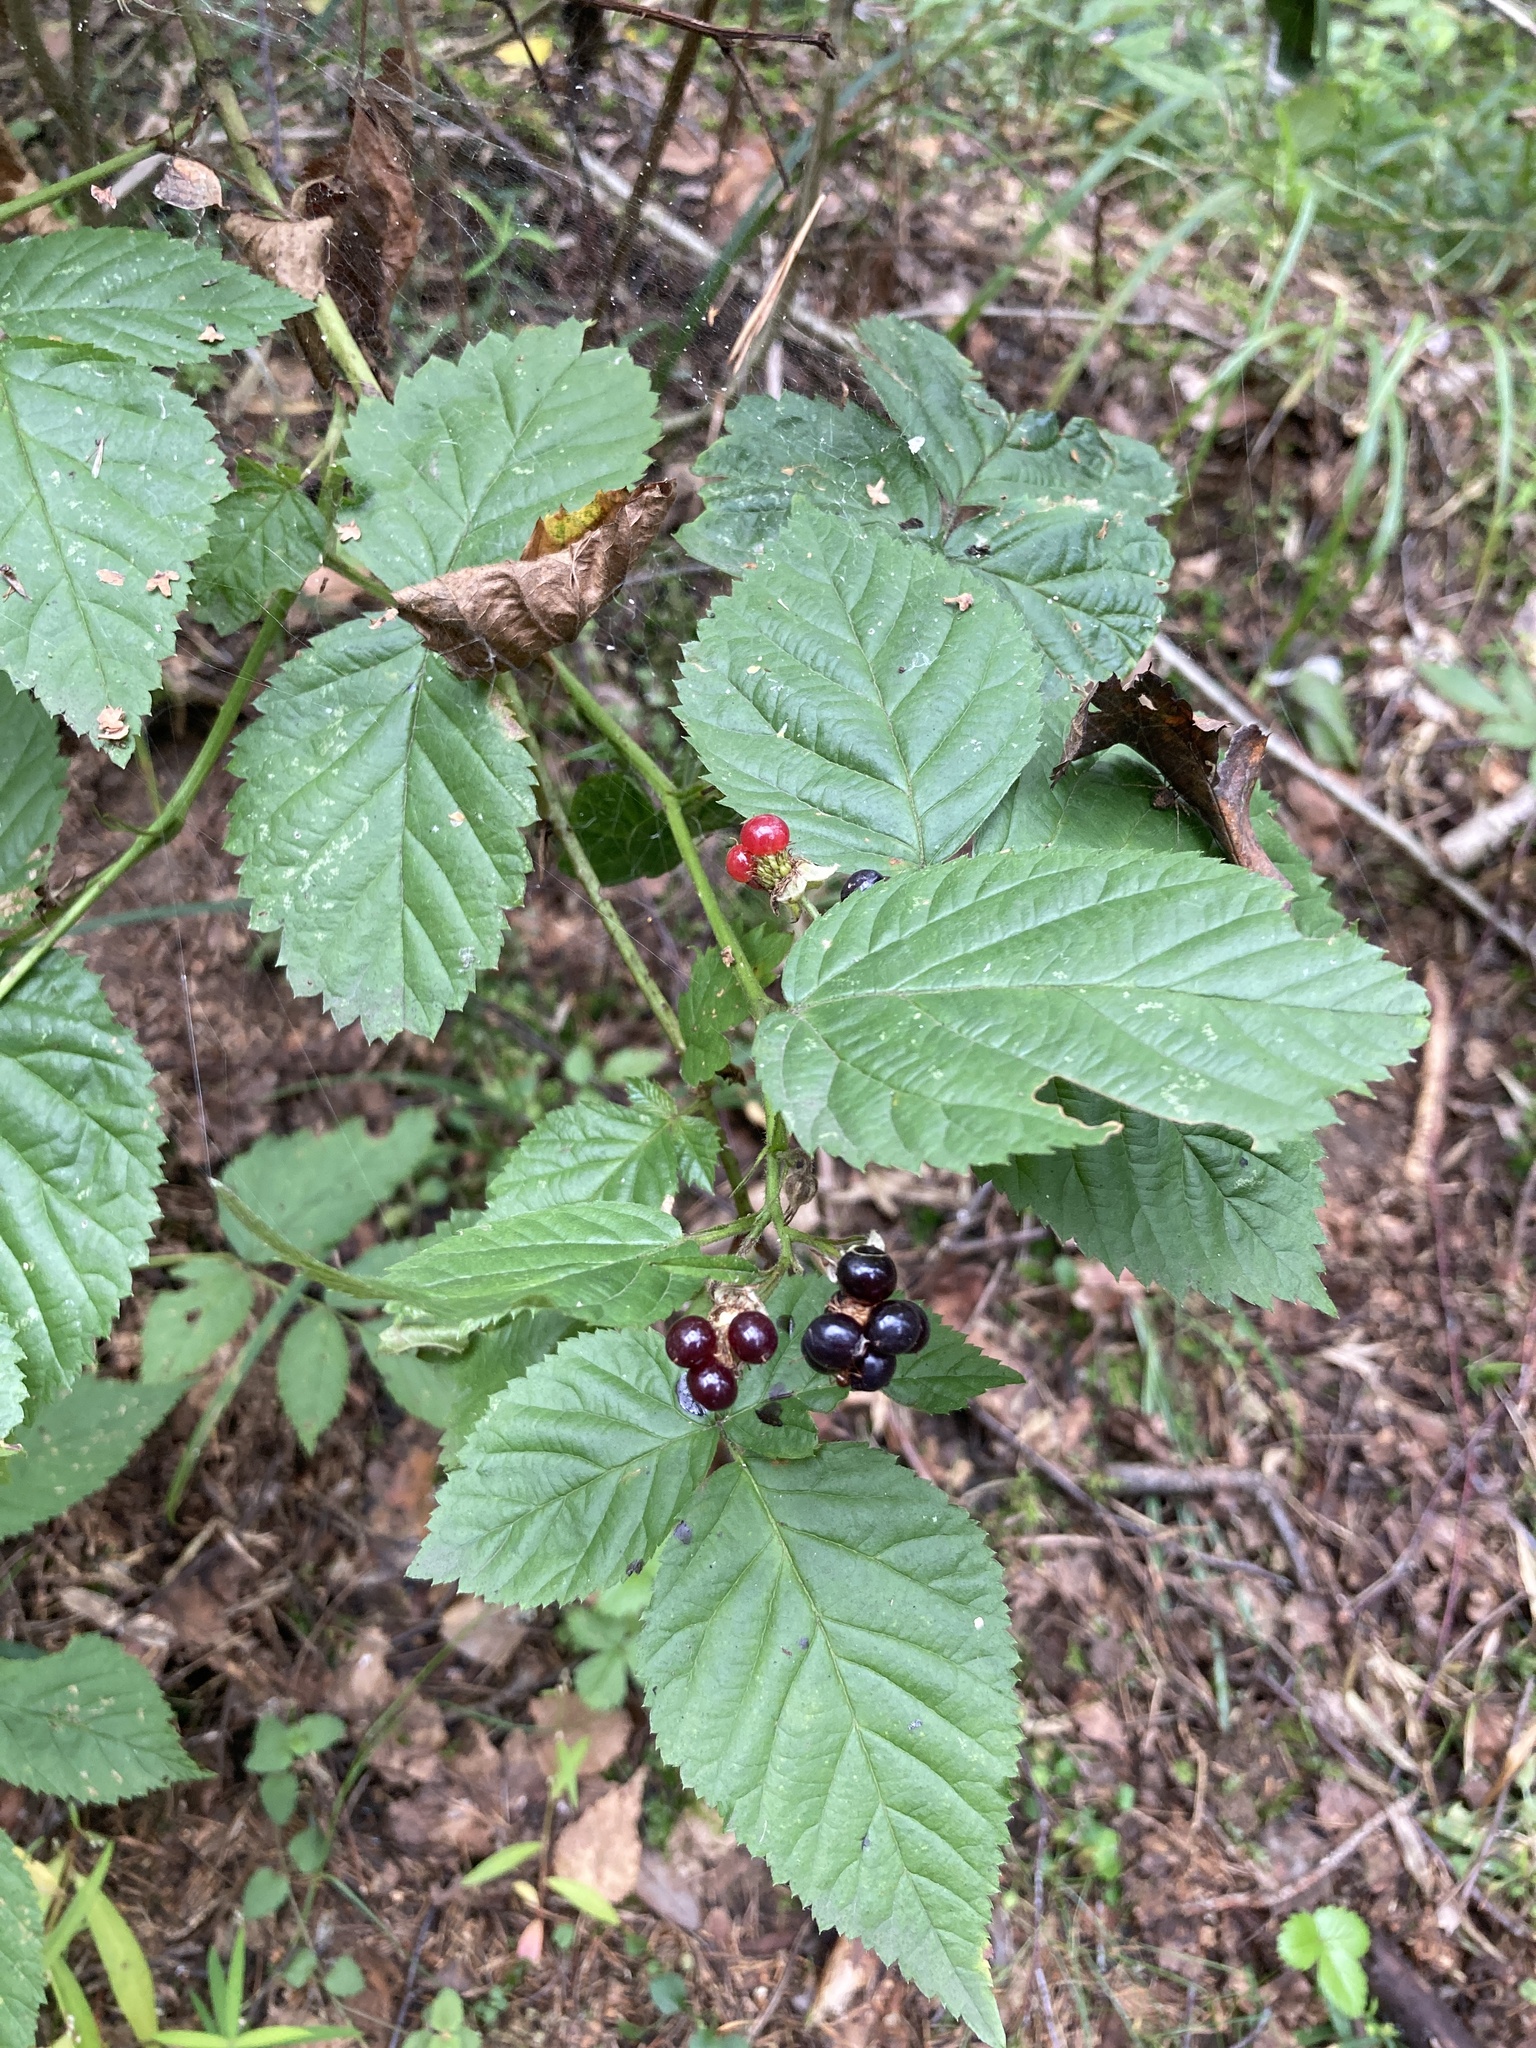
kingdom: Plantae
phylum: Tracheophyta
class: Magnoliopsida
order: Rosales
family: Rosaceae
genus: Rubus
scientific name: Rubus polonicus
